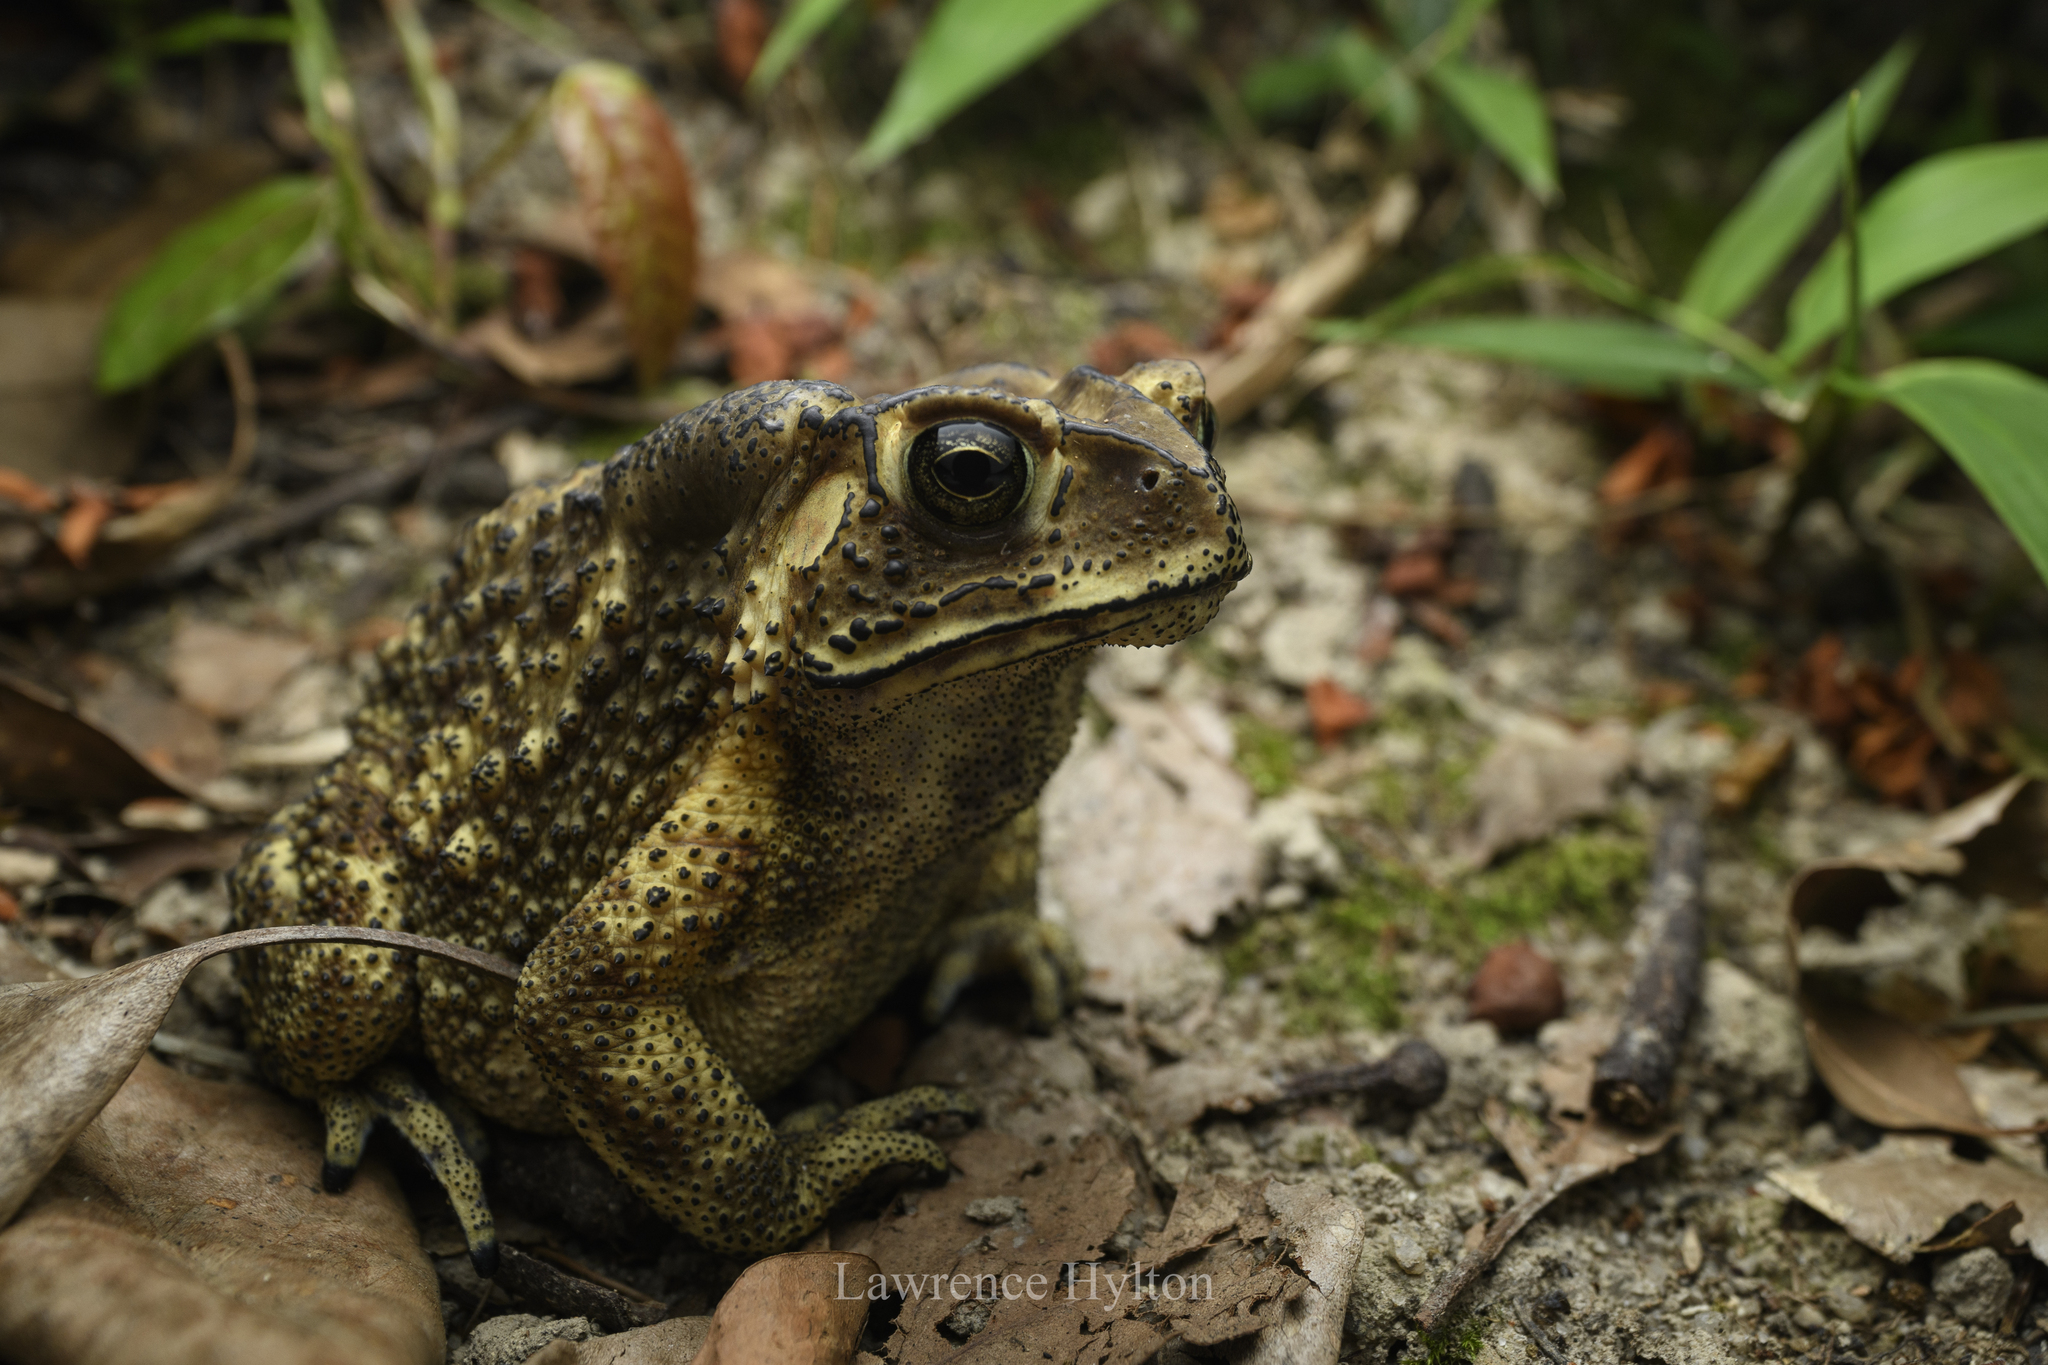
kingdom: Animalia
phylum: Chordata
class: Amphibia
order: Anura
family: Bufonidae
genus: Duttaphrynus
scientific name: Duttaphrynus melanostictus
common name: Common sunda toad
